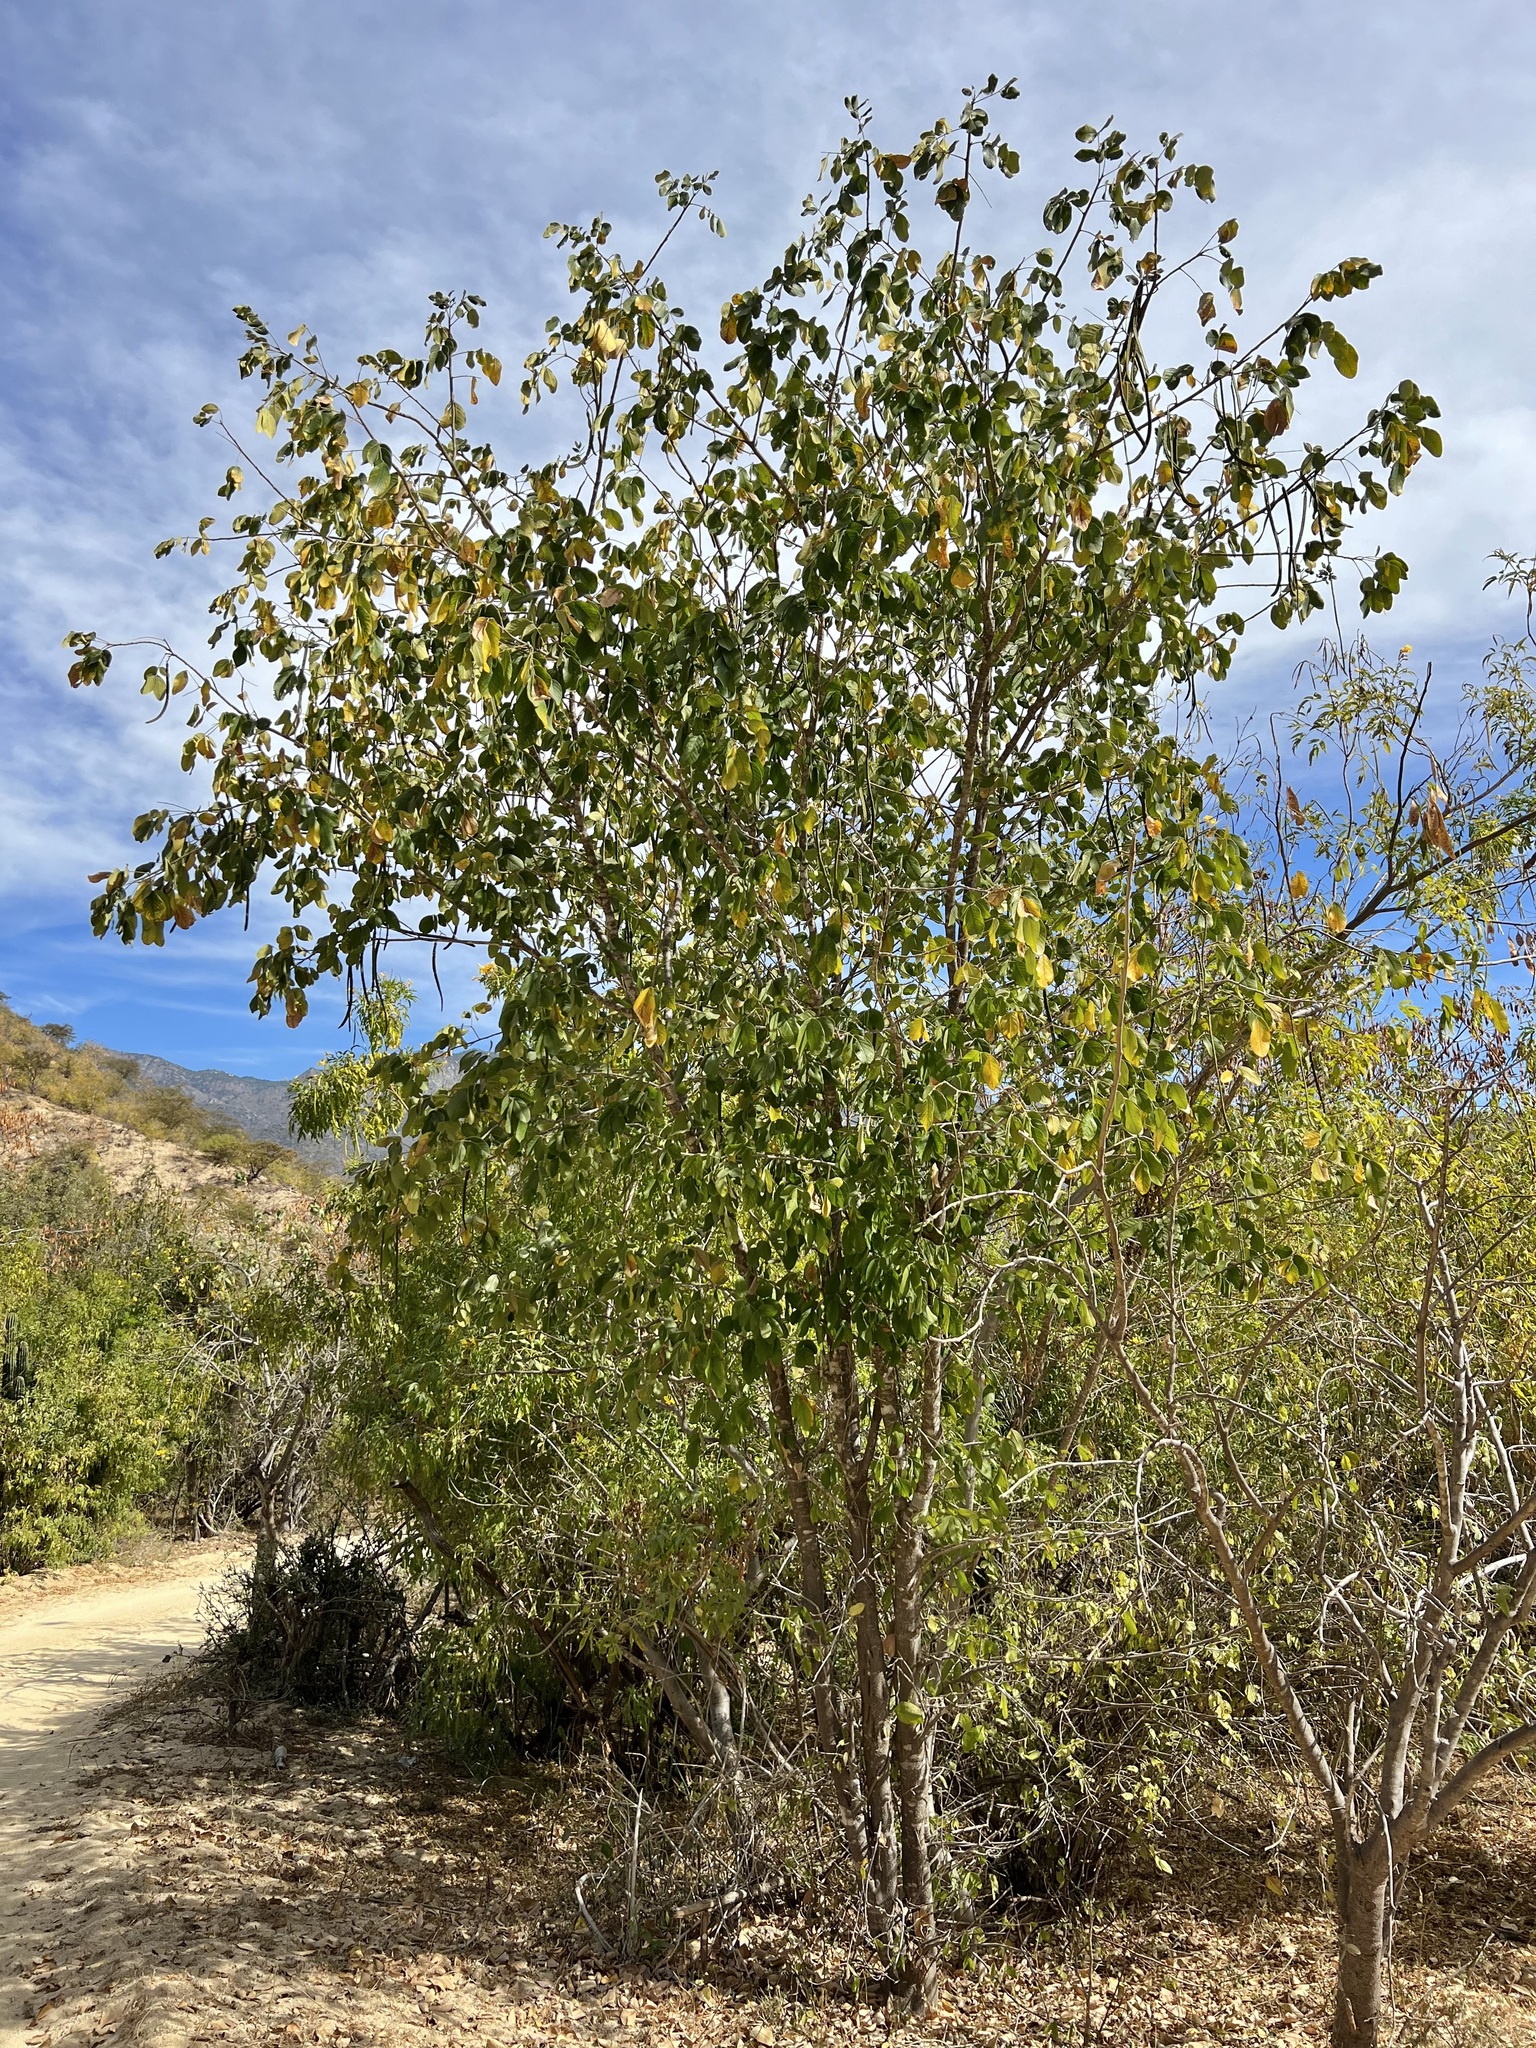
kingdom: Plantae
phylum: Tracheophyta
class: Magnoliopsida
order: Fabales
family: Fabaceae
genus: Senna
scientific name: Senna atomaria
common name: Flor de san jose
